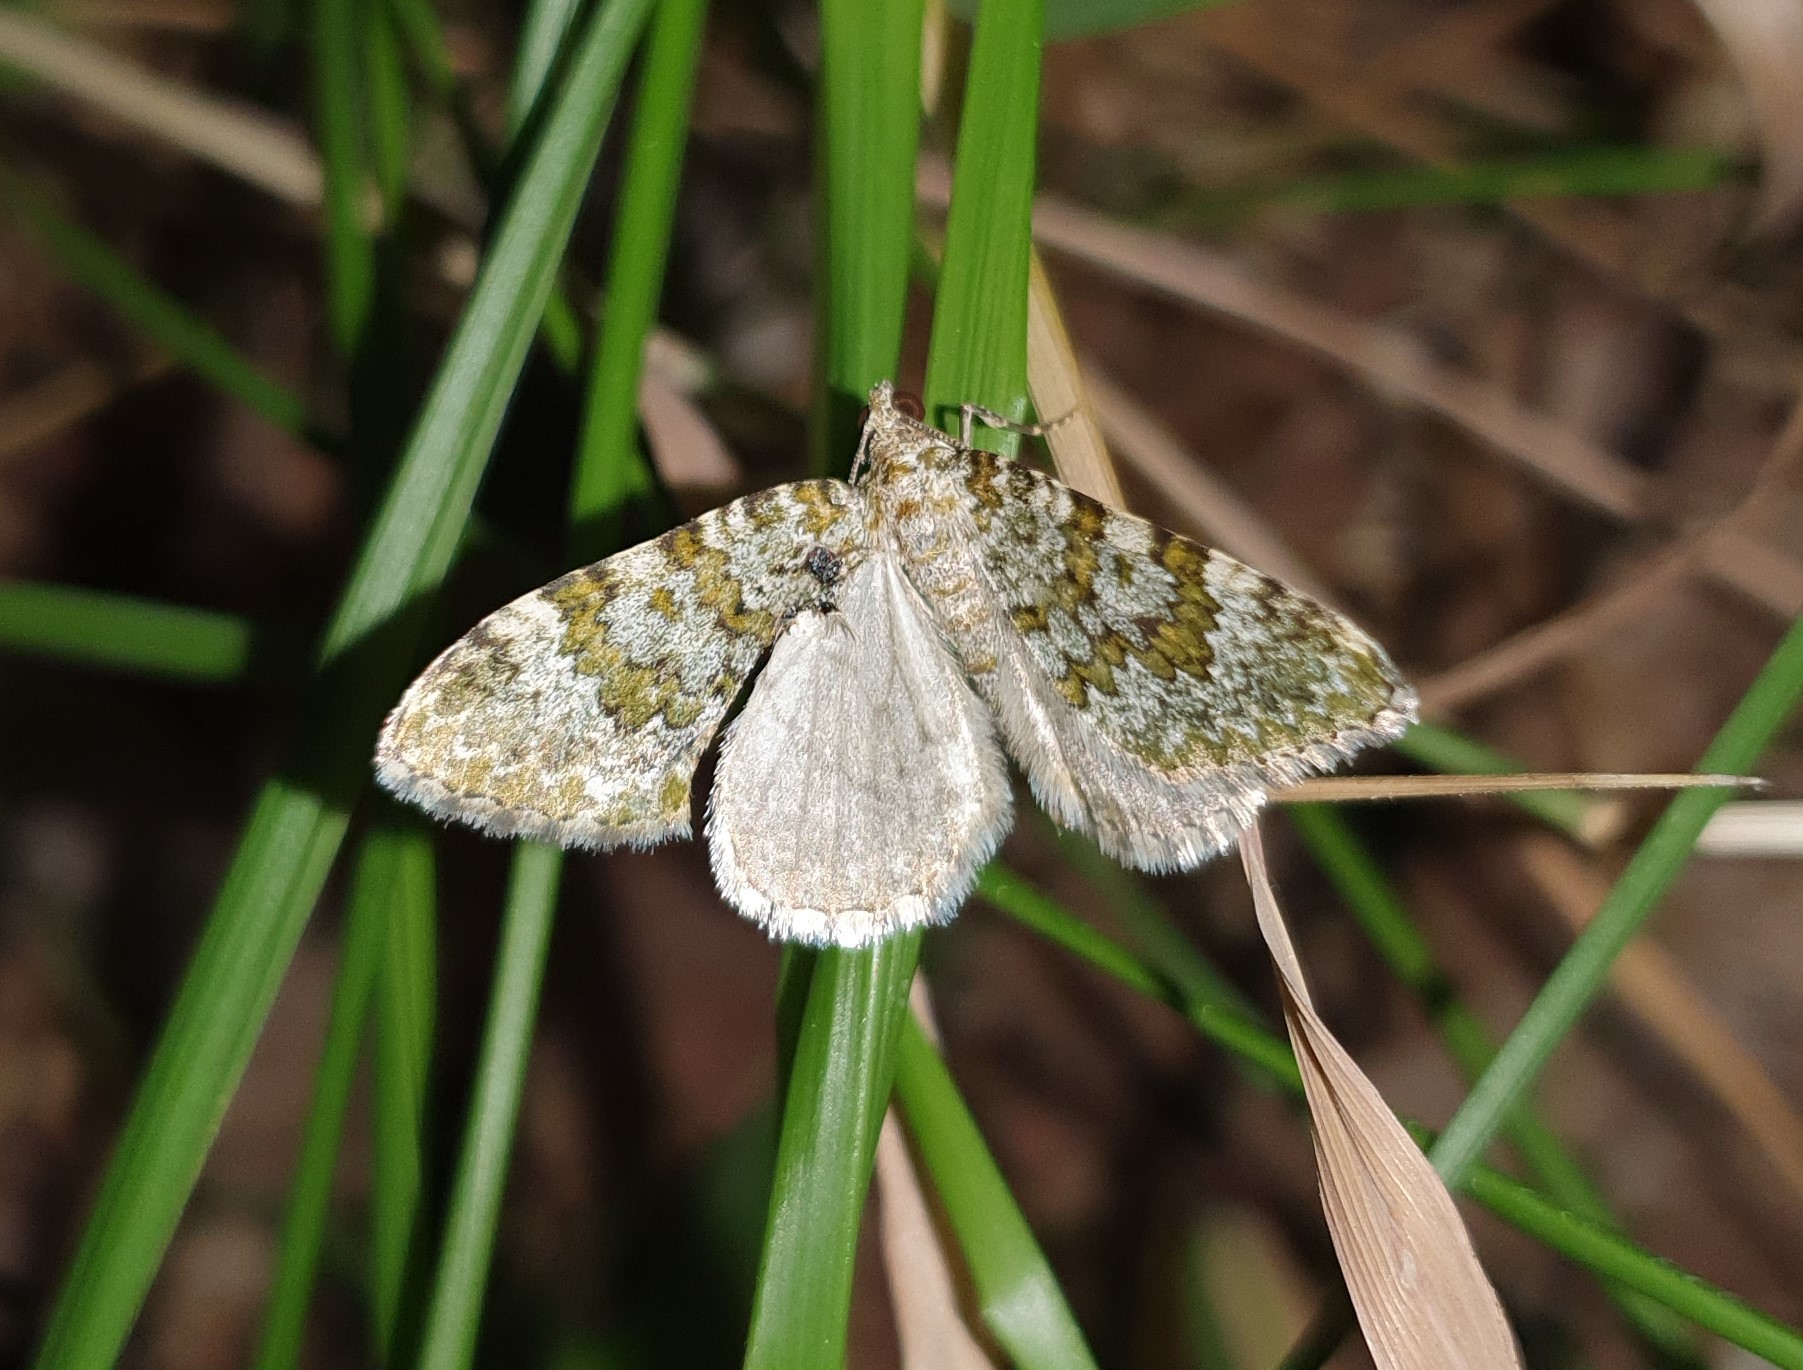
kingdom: Animalia
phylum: Arthropoda
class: Insecta
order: Lepidoptera
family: Geometridae
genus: Euphyia
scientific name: Euphyia frustata
